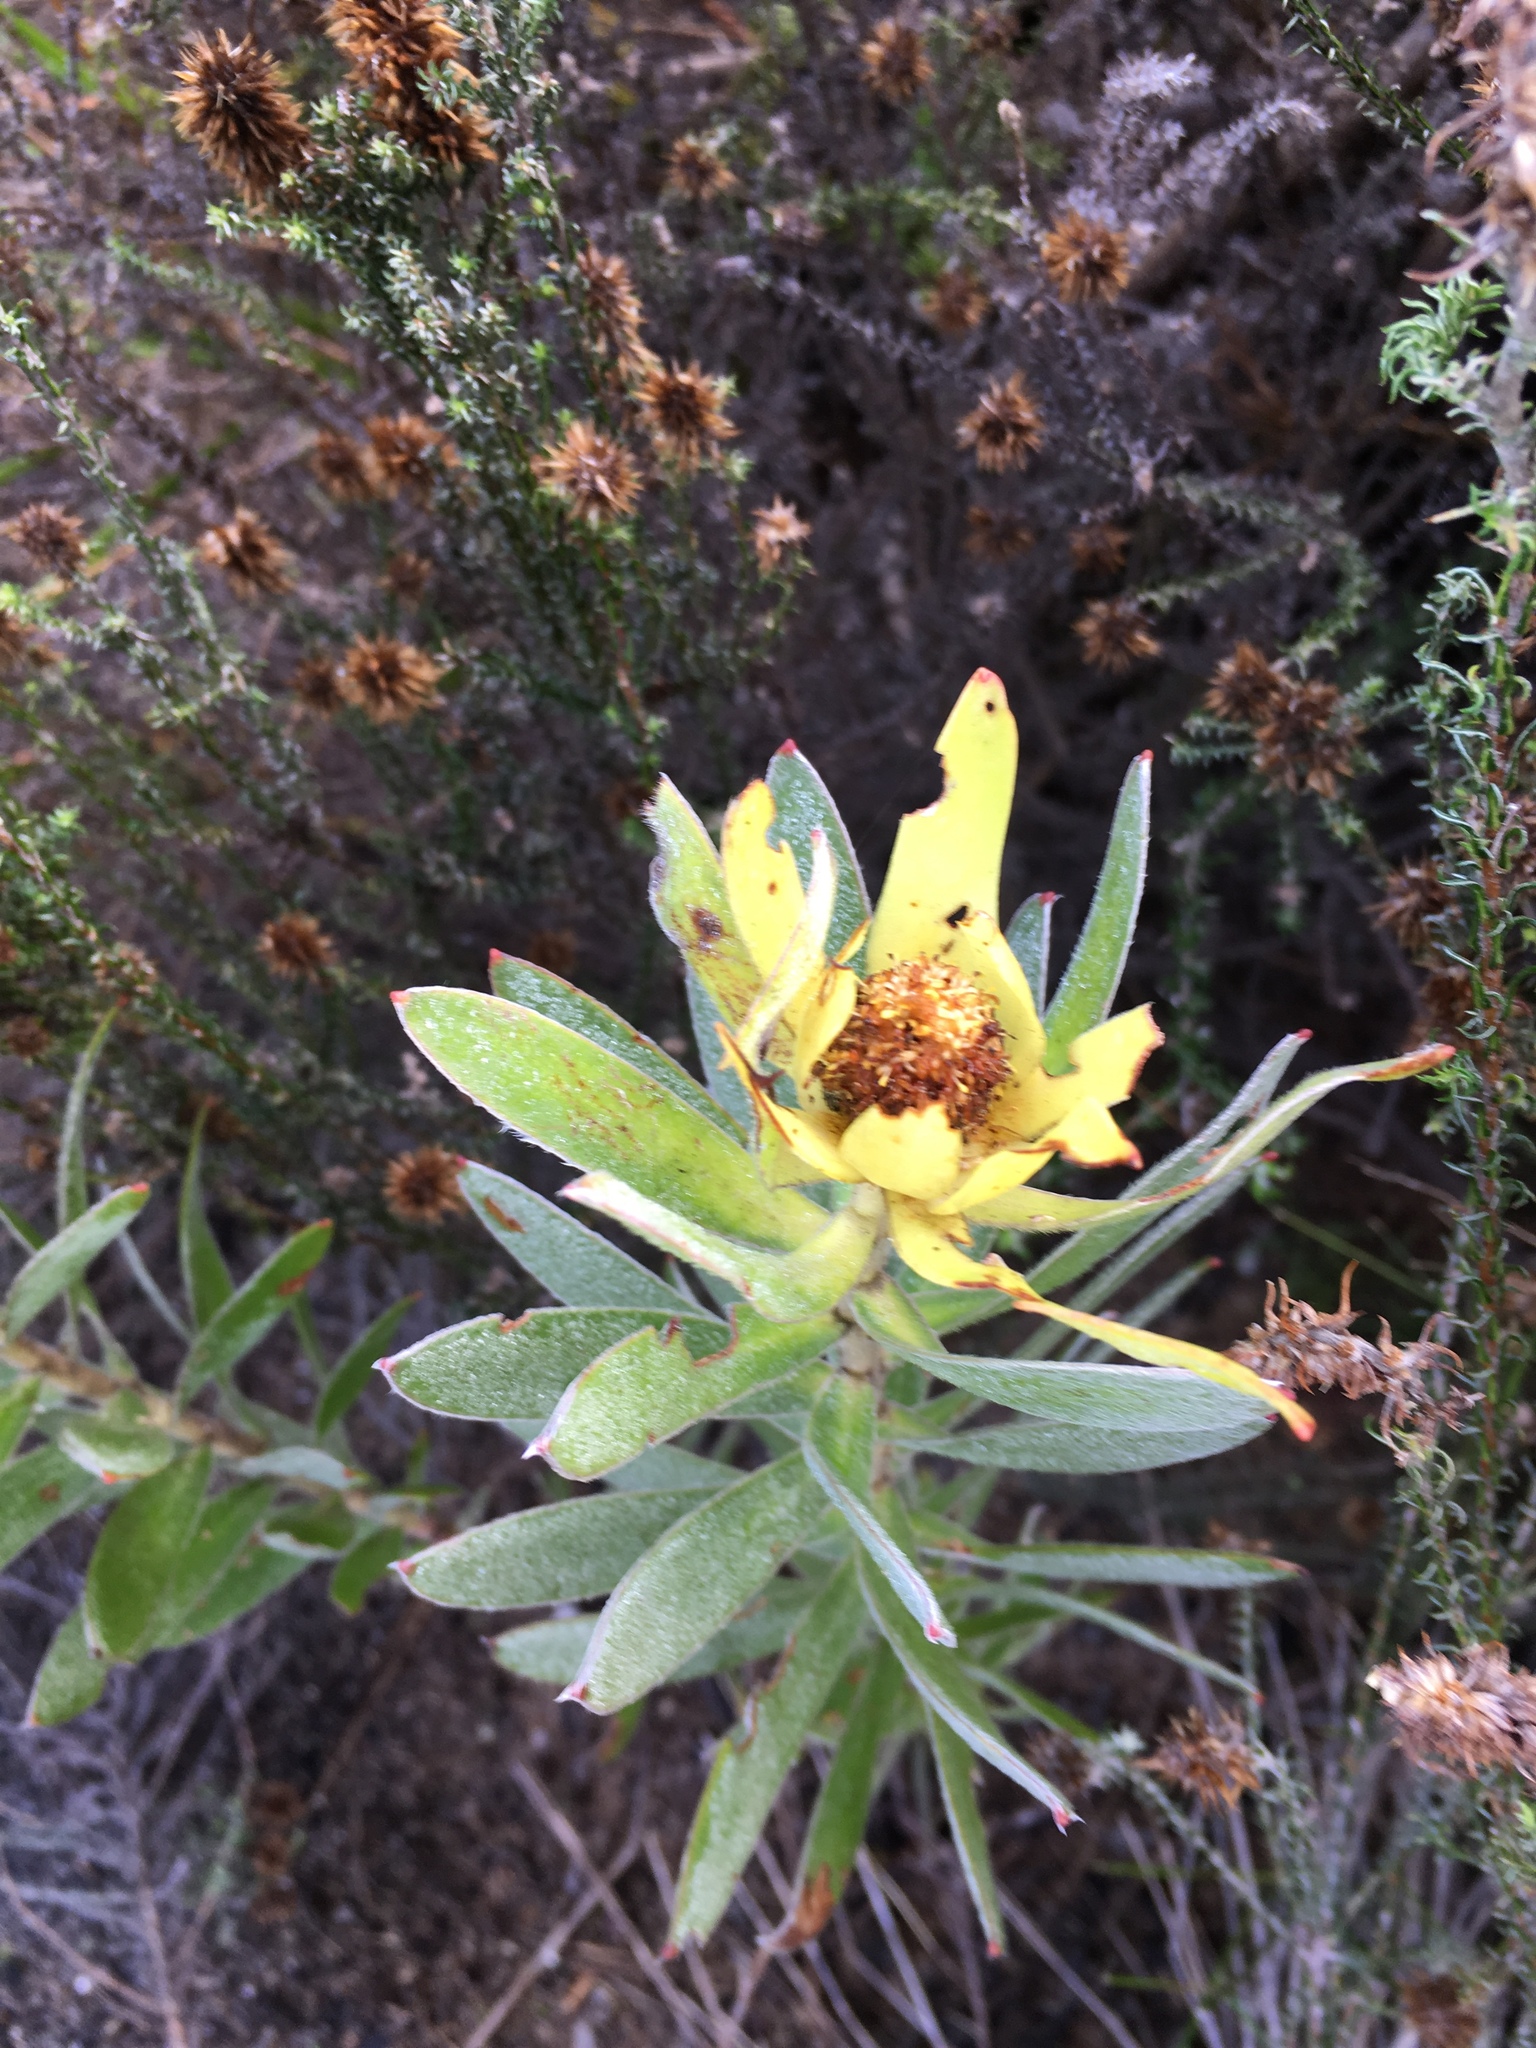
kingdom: Plantae
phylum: Tracheophyta
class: Magnoliopsida
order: Proteales
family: Proteaceae
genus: Leucadendron
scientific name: Leucadendron laureolum
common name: Golden sunshinebush
